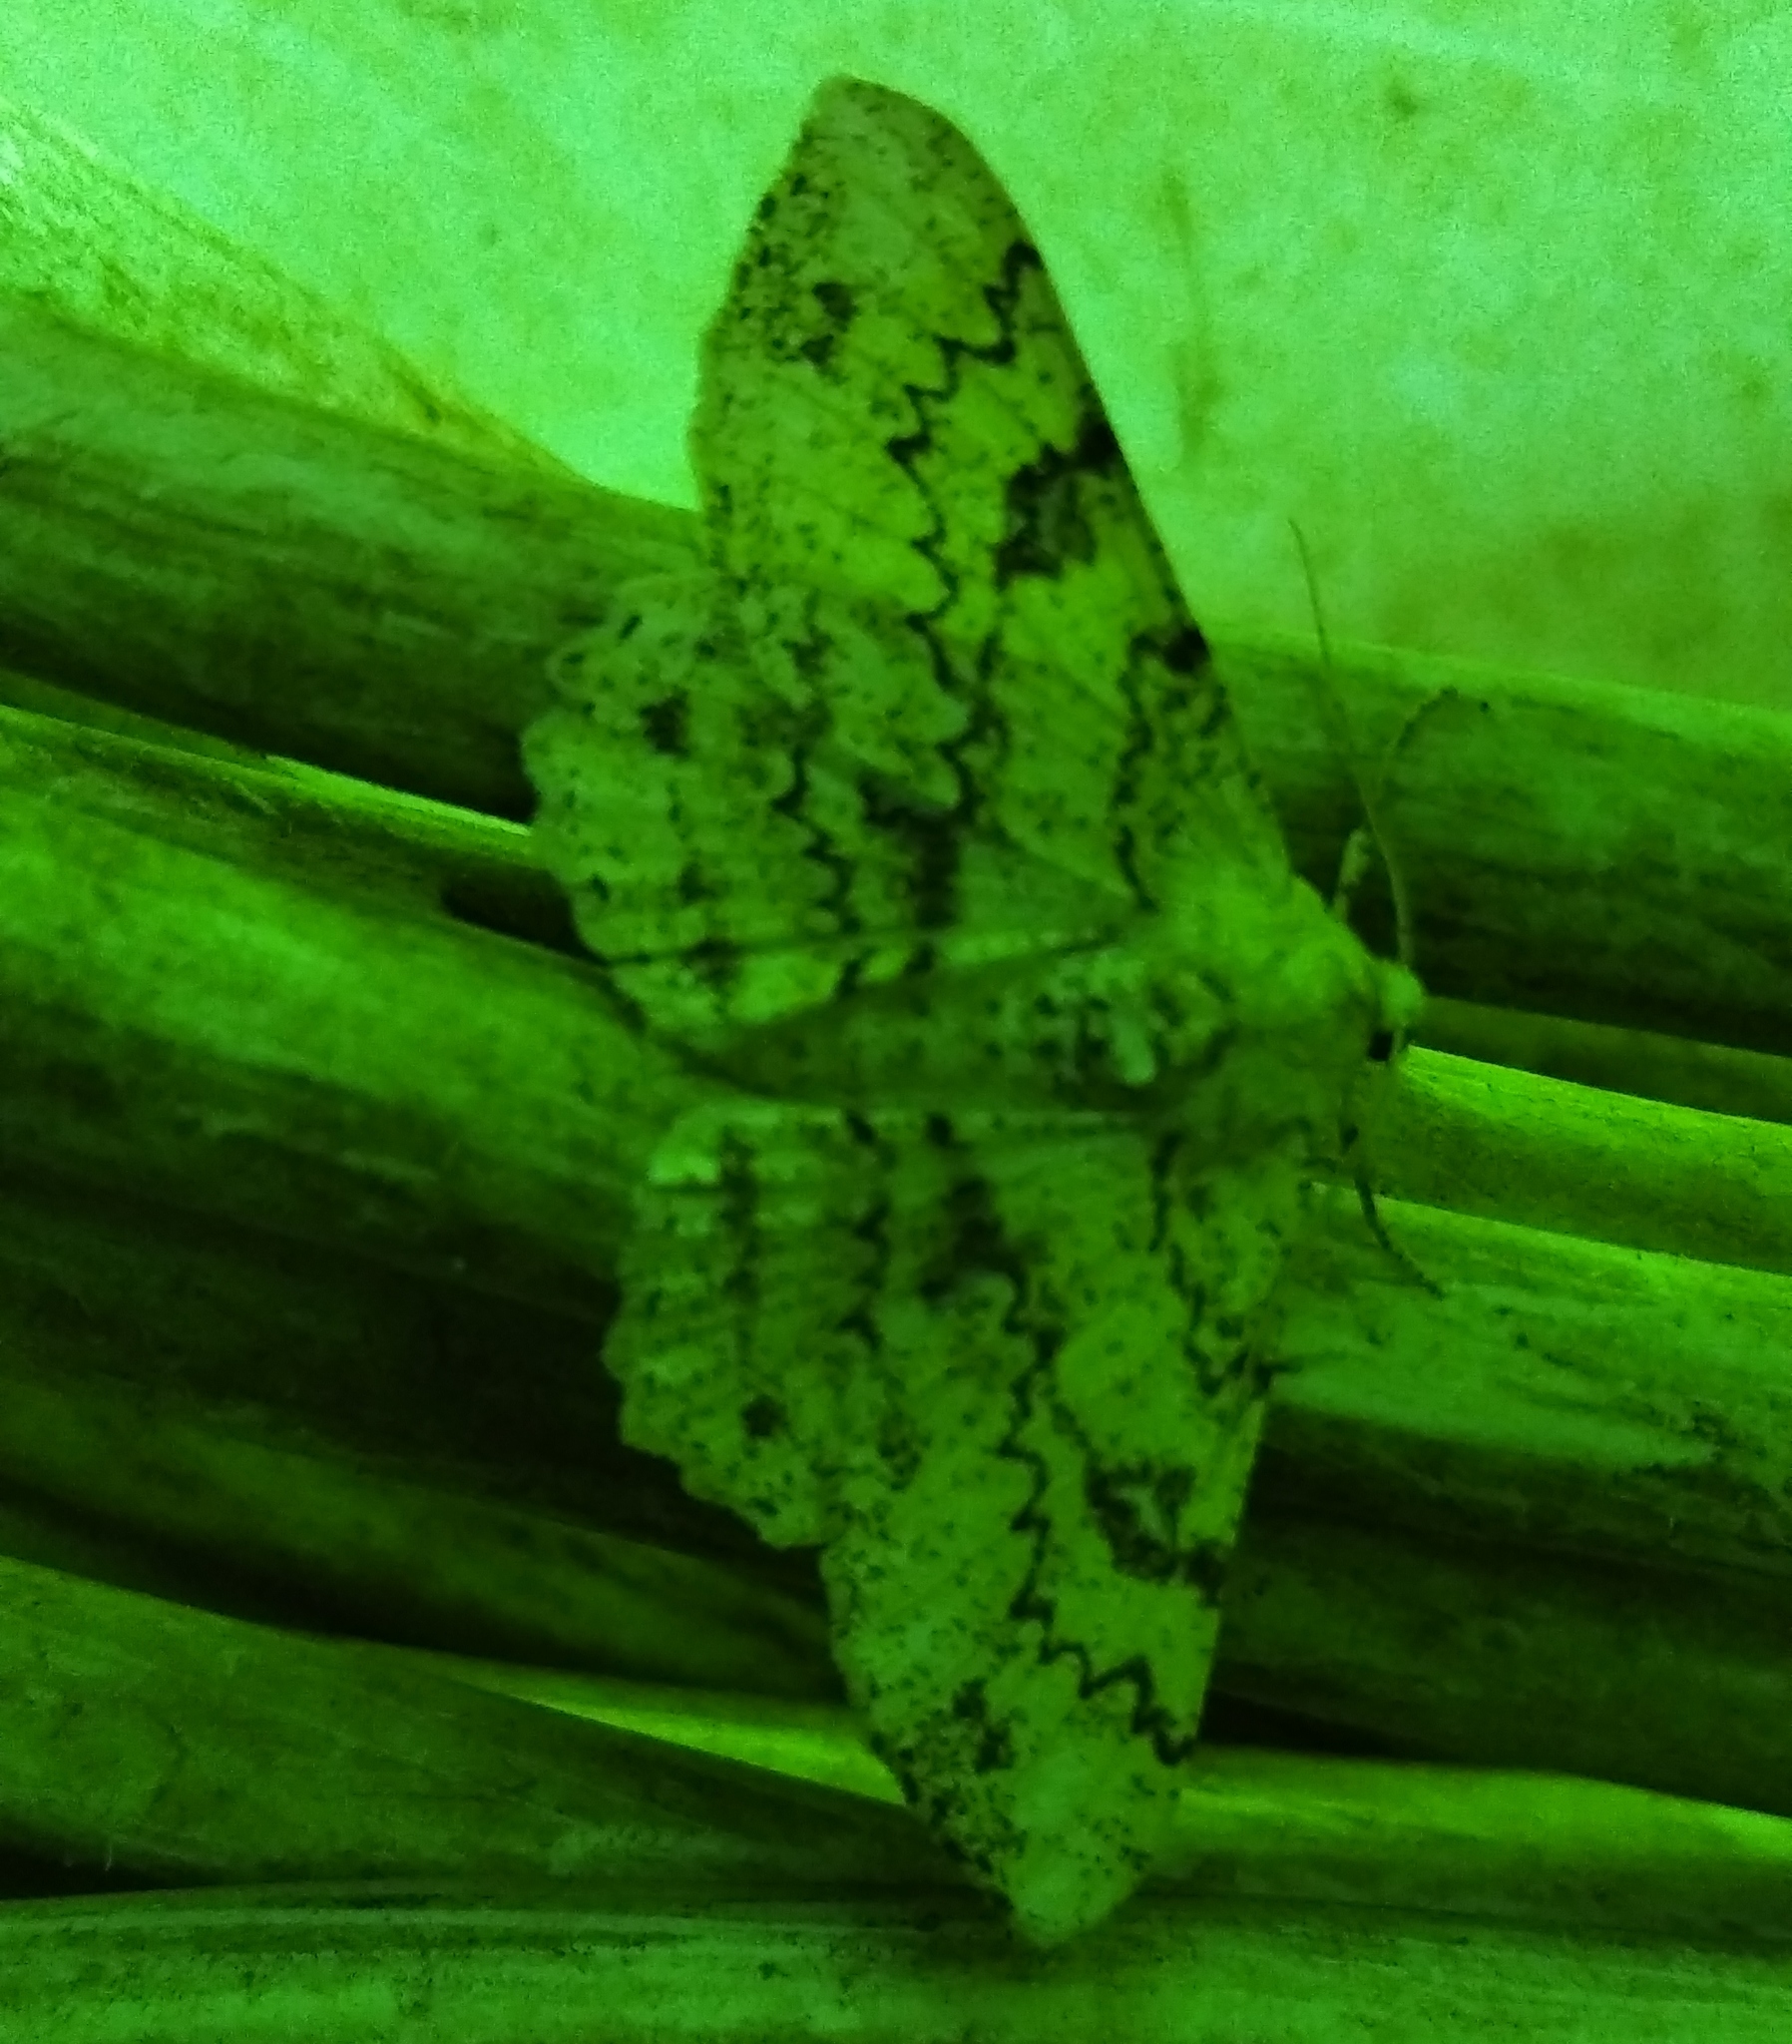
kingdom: Animalia
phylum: Arthropoda
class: Insecta
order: Lepidoptera
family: Geometridae
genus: Ascotis
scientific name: Ascotis selenaria
